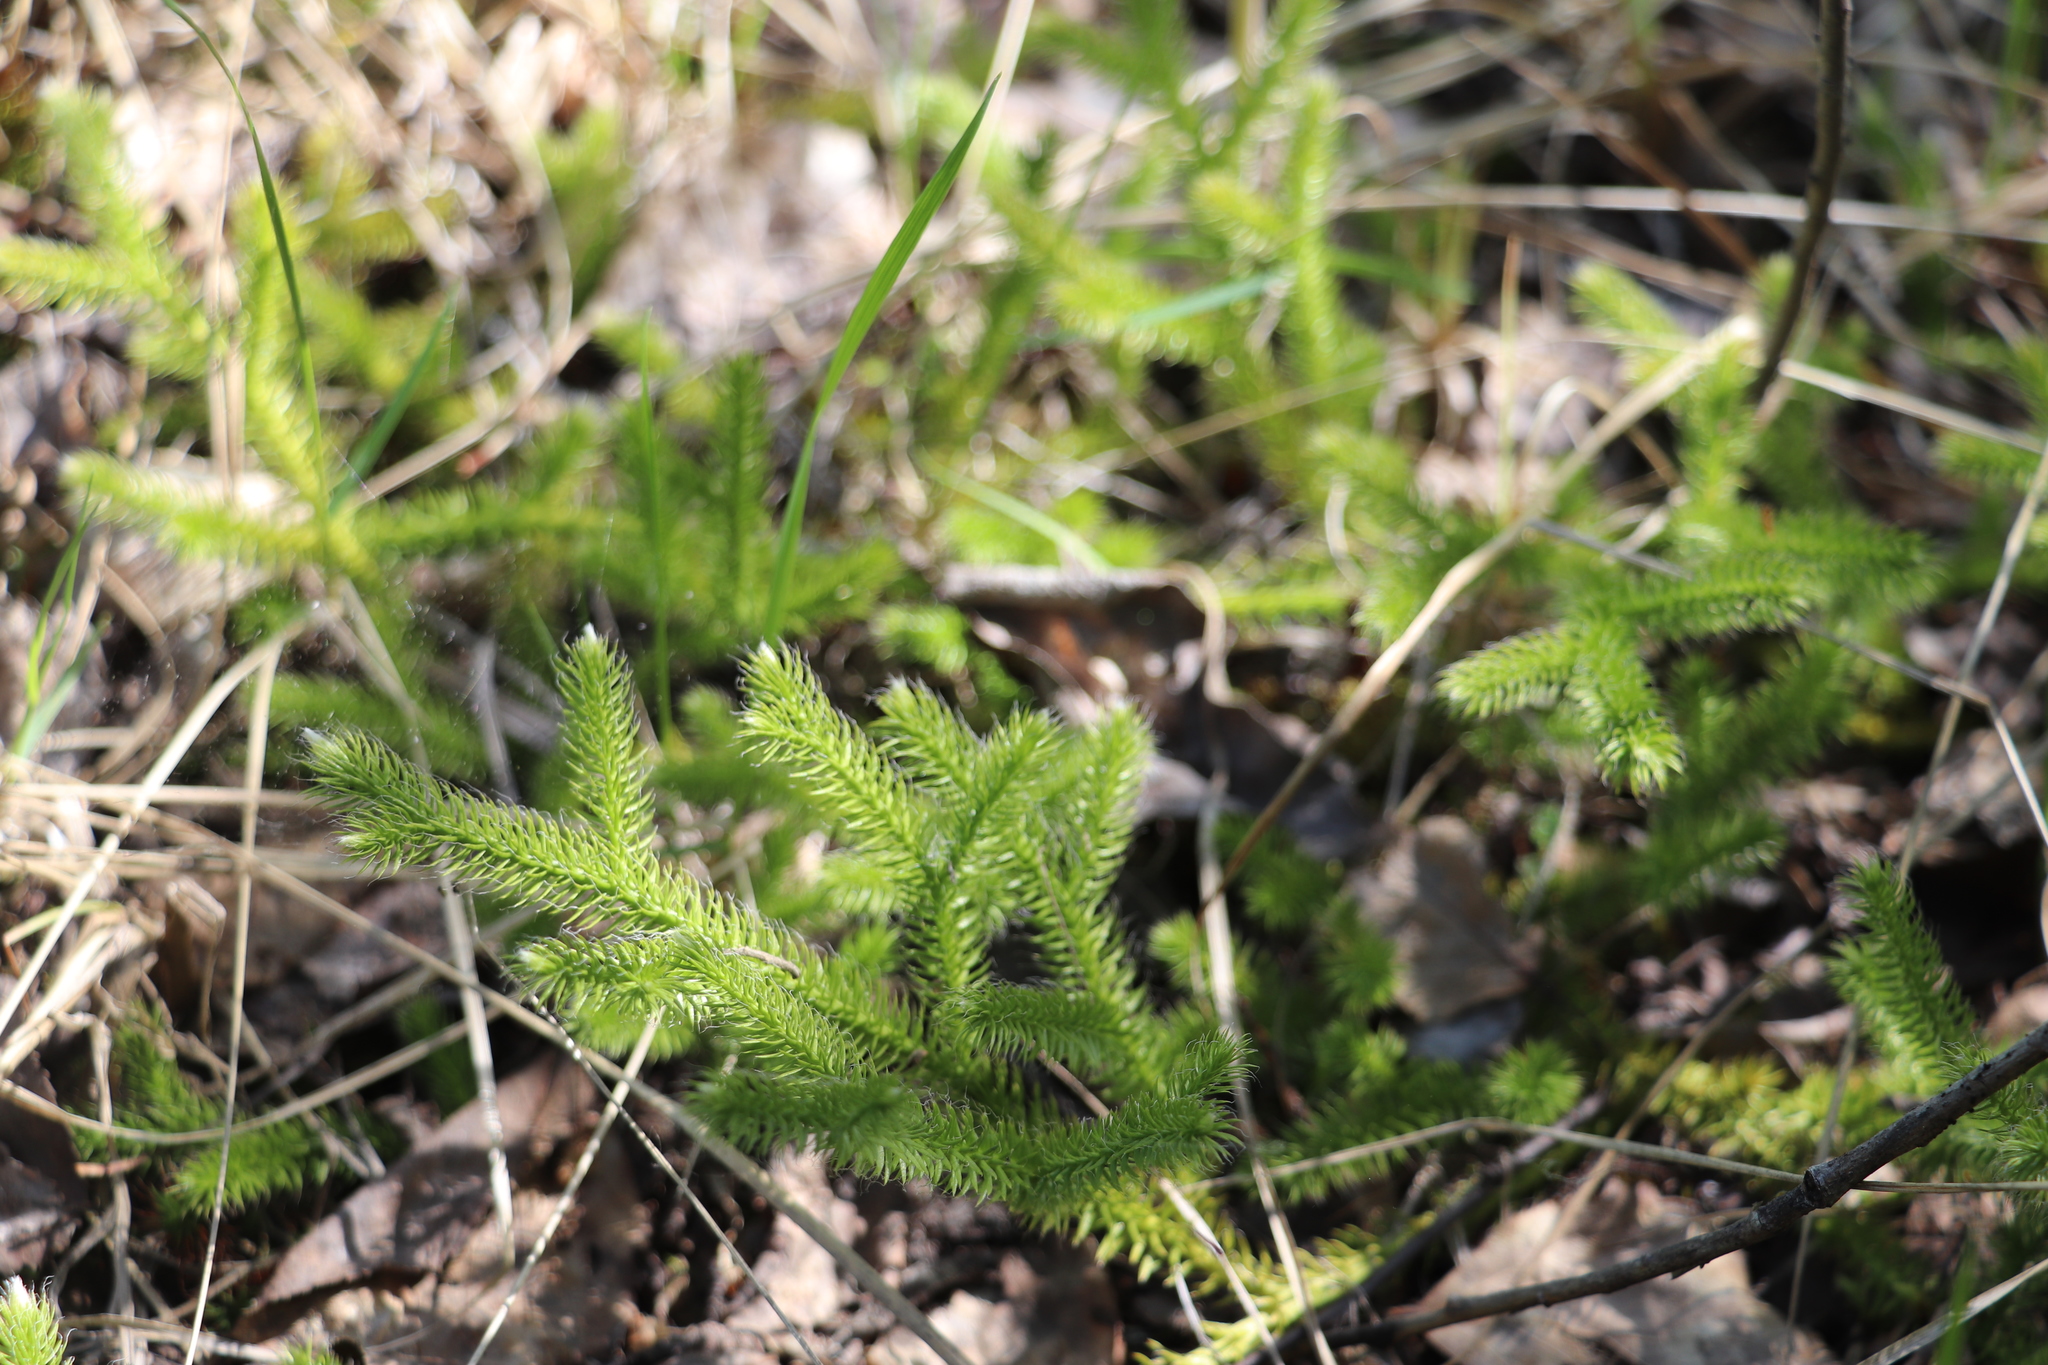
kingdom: Plantae
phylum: Tracheophyta
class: Lycopodiopsida
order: Lycopodiales
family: Lycopodiaceae
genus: Lycopodium
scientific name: Lycopodium clavatum
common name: Stag's-horn clubmoss
